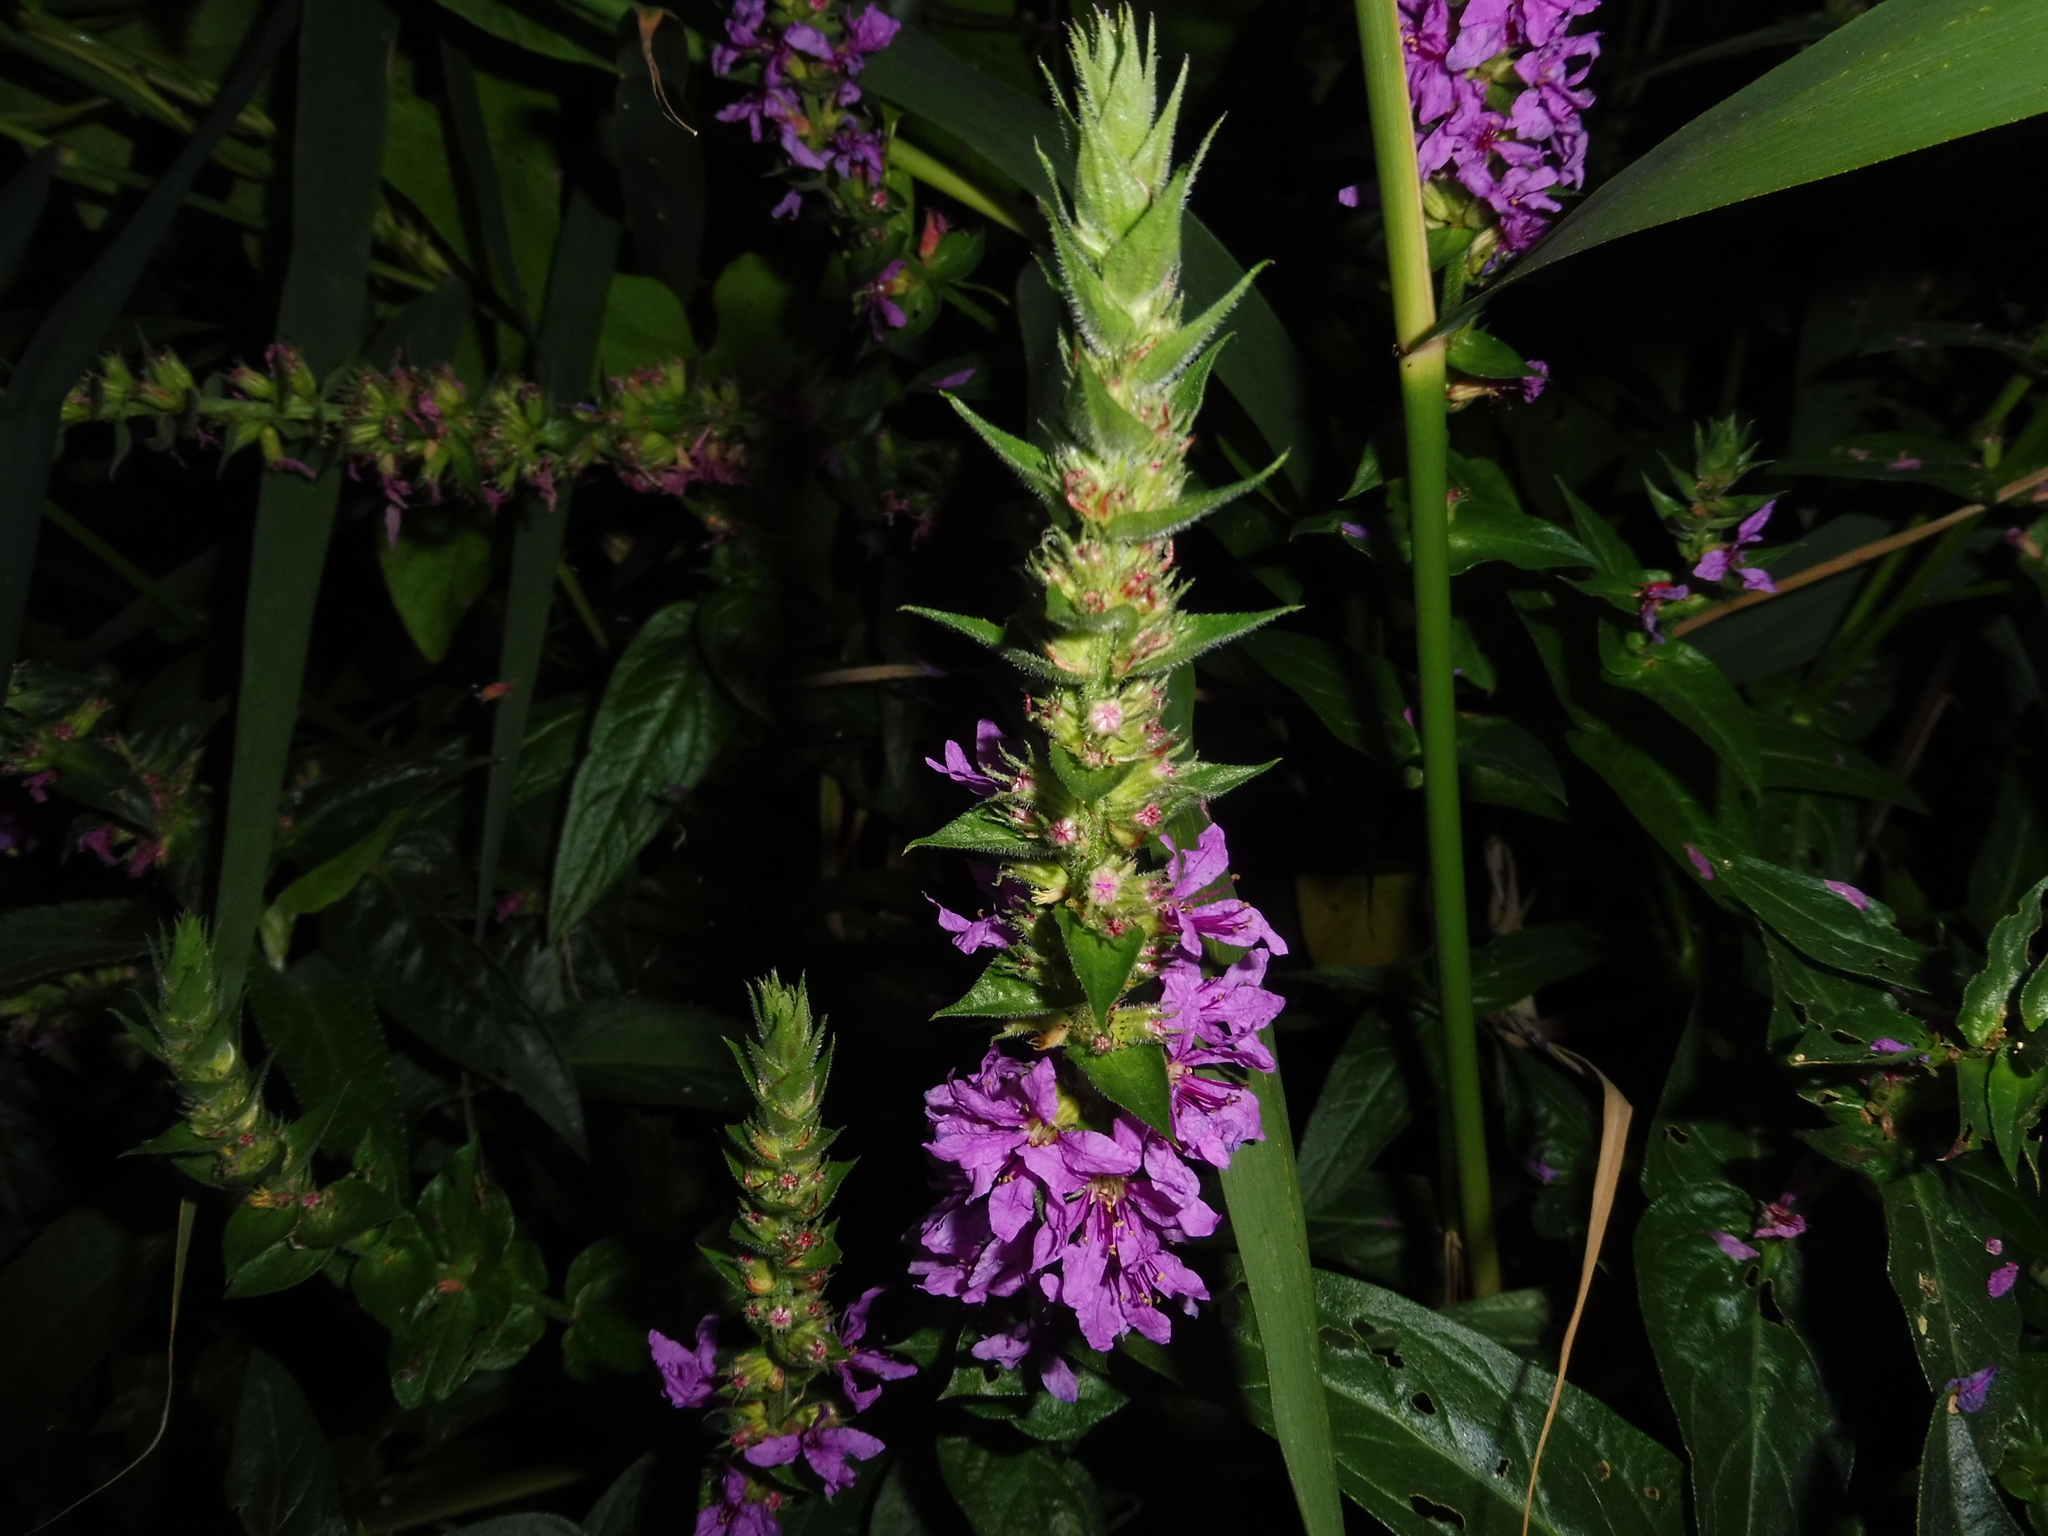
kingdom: Plantae
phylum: Tracheophyta
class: Magnoliopsida
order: Myrtales
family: Lythraceae
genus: Lythrum
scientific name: Lythrum salicaria
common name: Purple loosestrife
